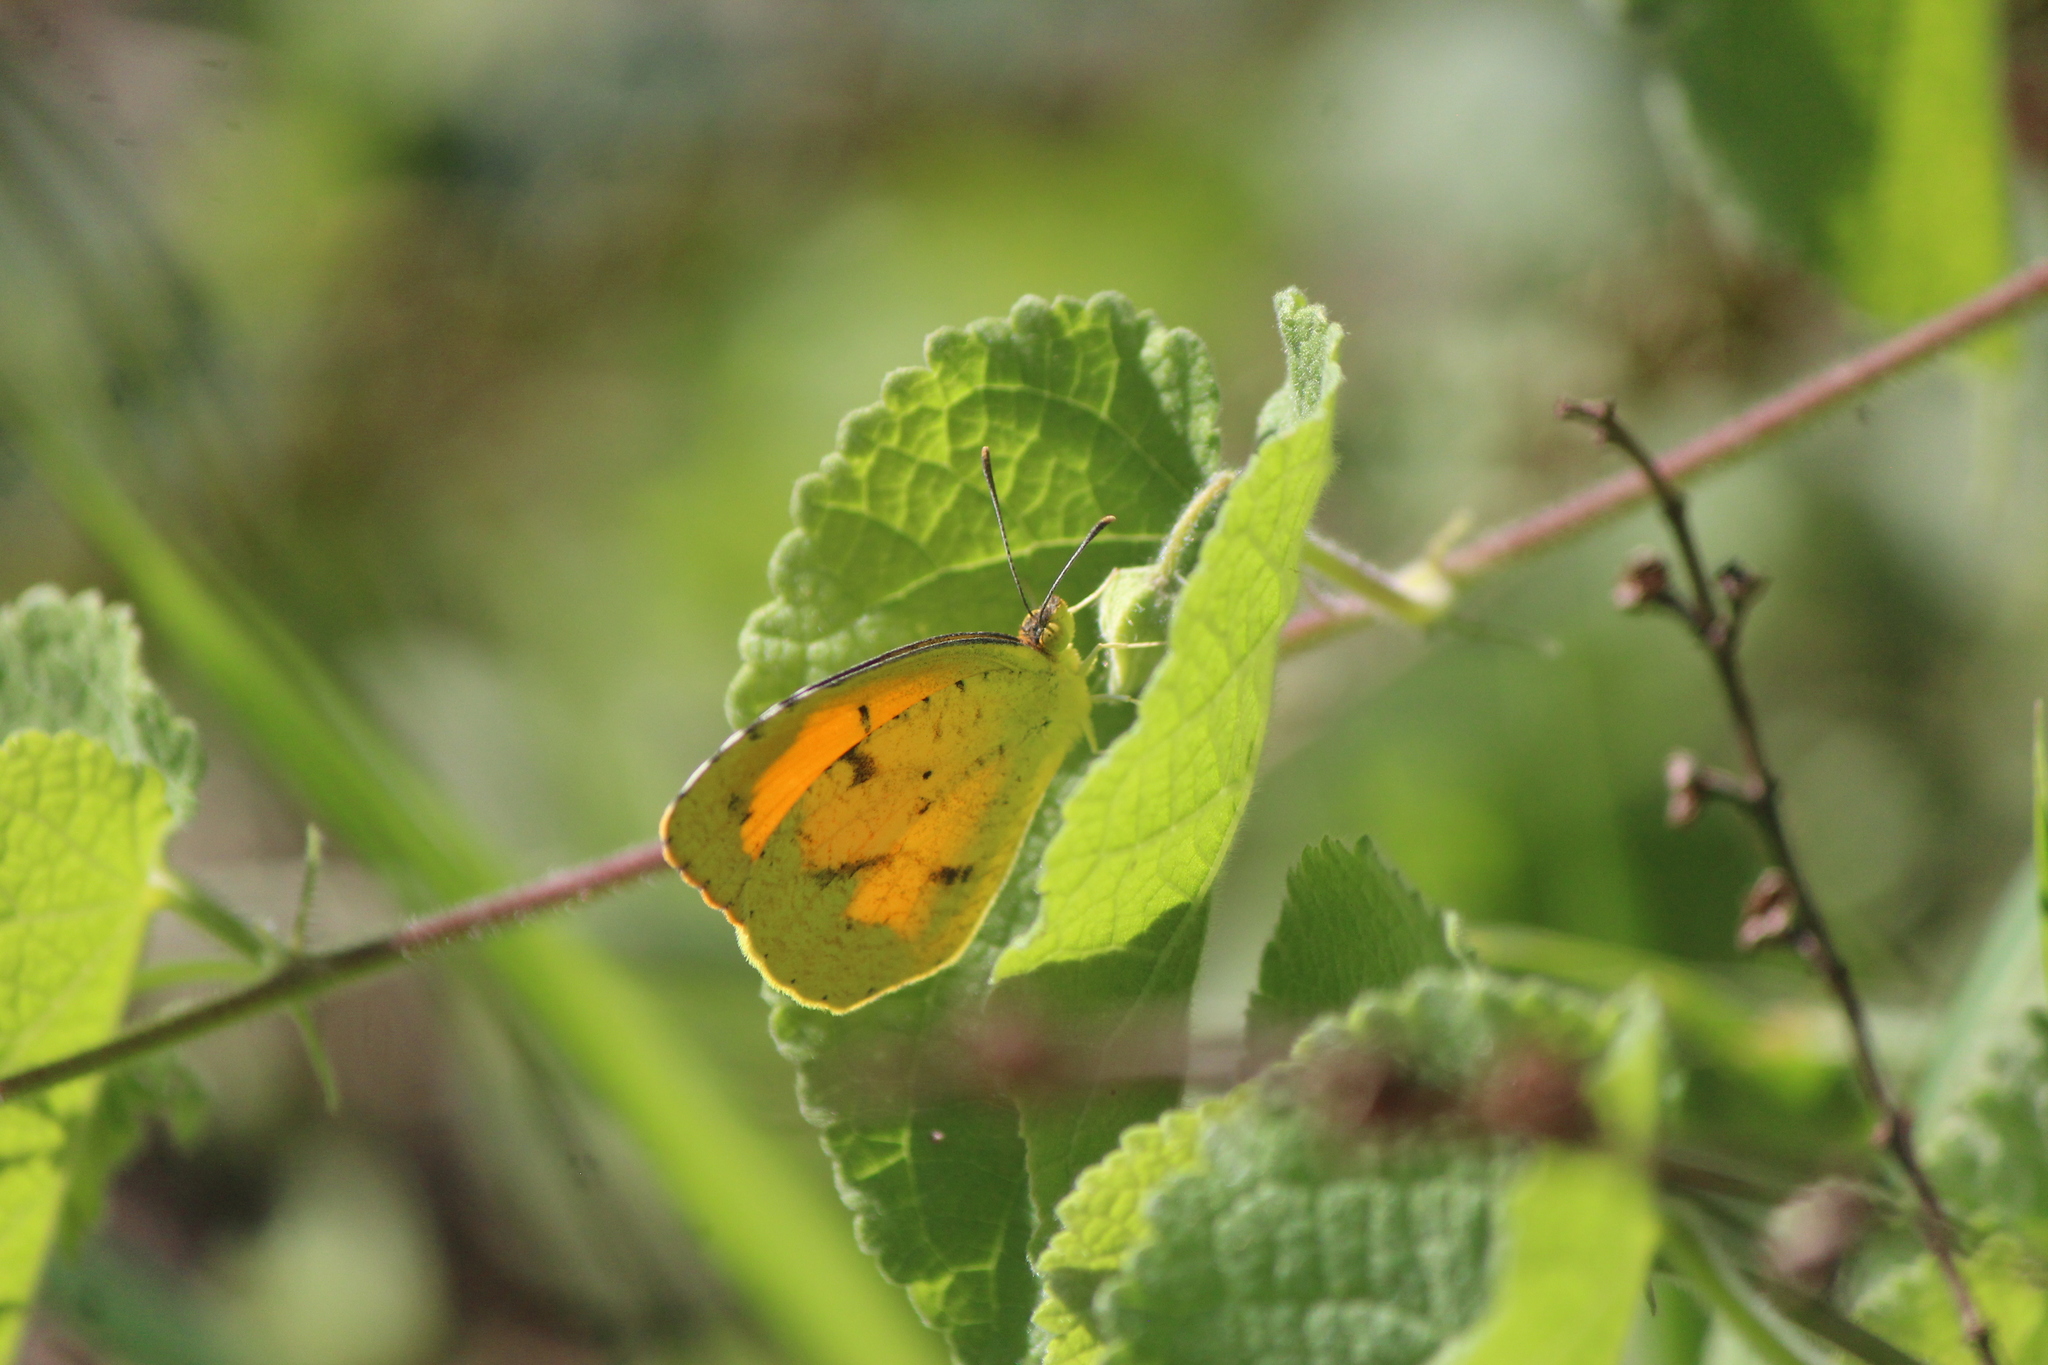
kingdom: Animalia
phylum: Arthropoda
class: Insecta
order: Lepidoptera
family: Pieridae
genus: Abaeis
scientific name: Abaeis nicippe
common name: Sleepy orange
